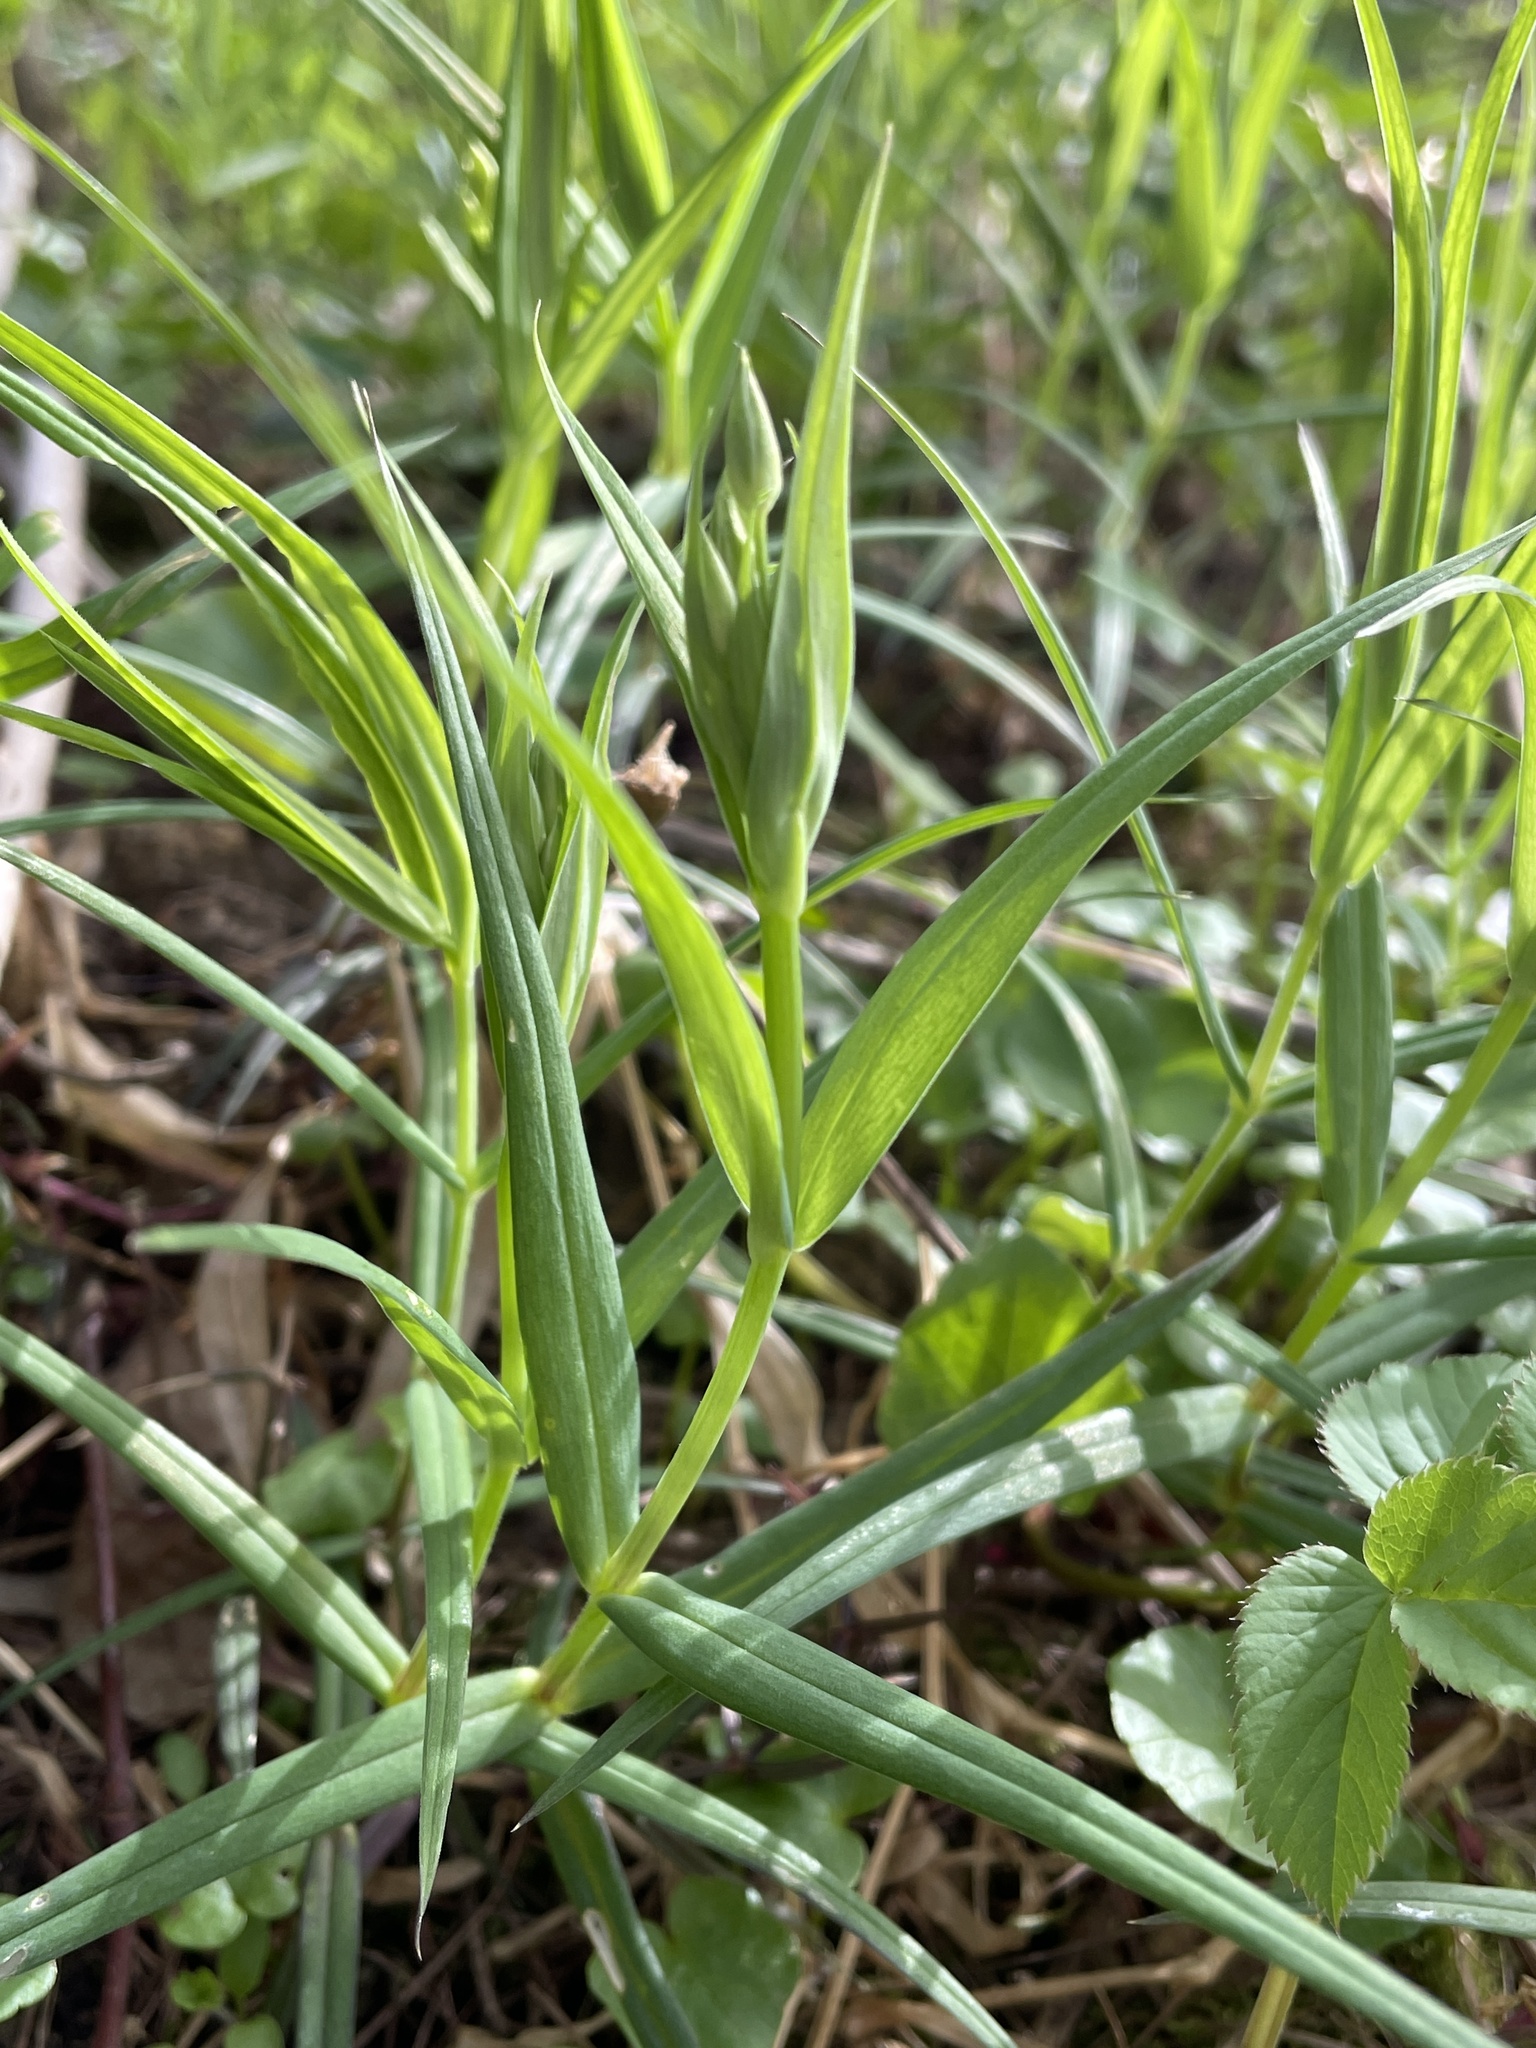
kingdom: Plantae
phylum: Tracheophyta
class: Magnoliopsida
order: Caryophyllales
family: Caryophyllaceae
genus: Rabelera
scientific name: Rabelera holostea
